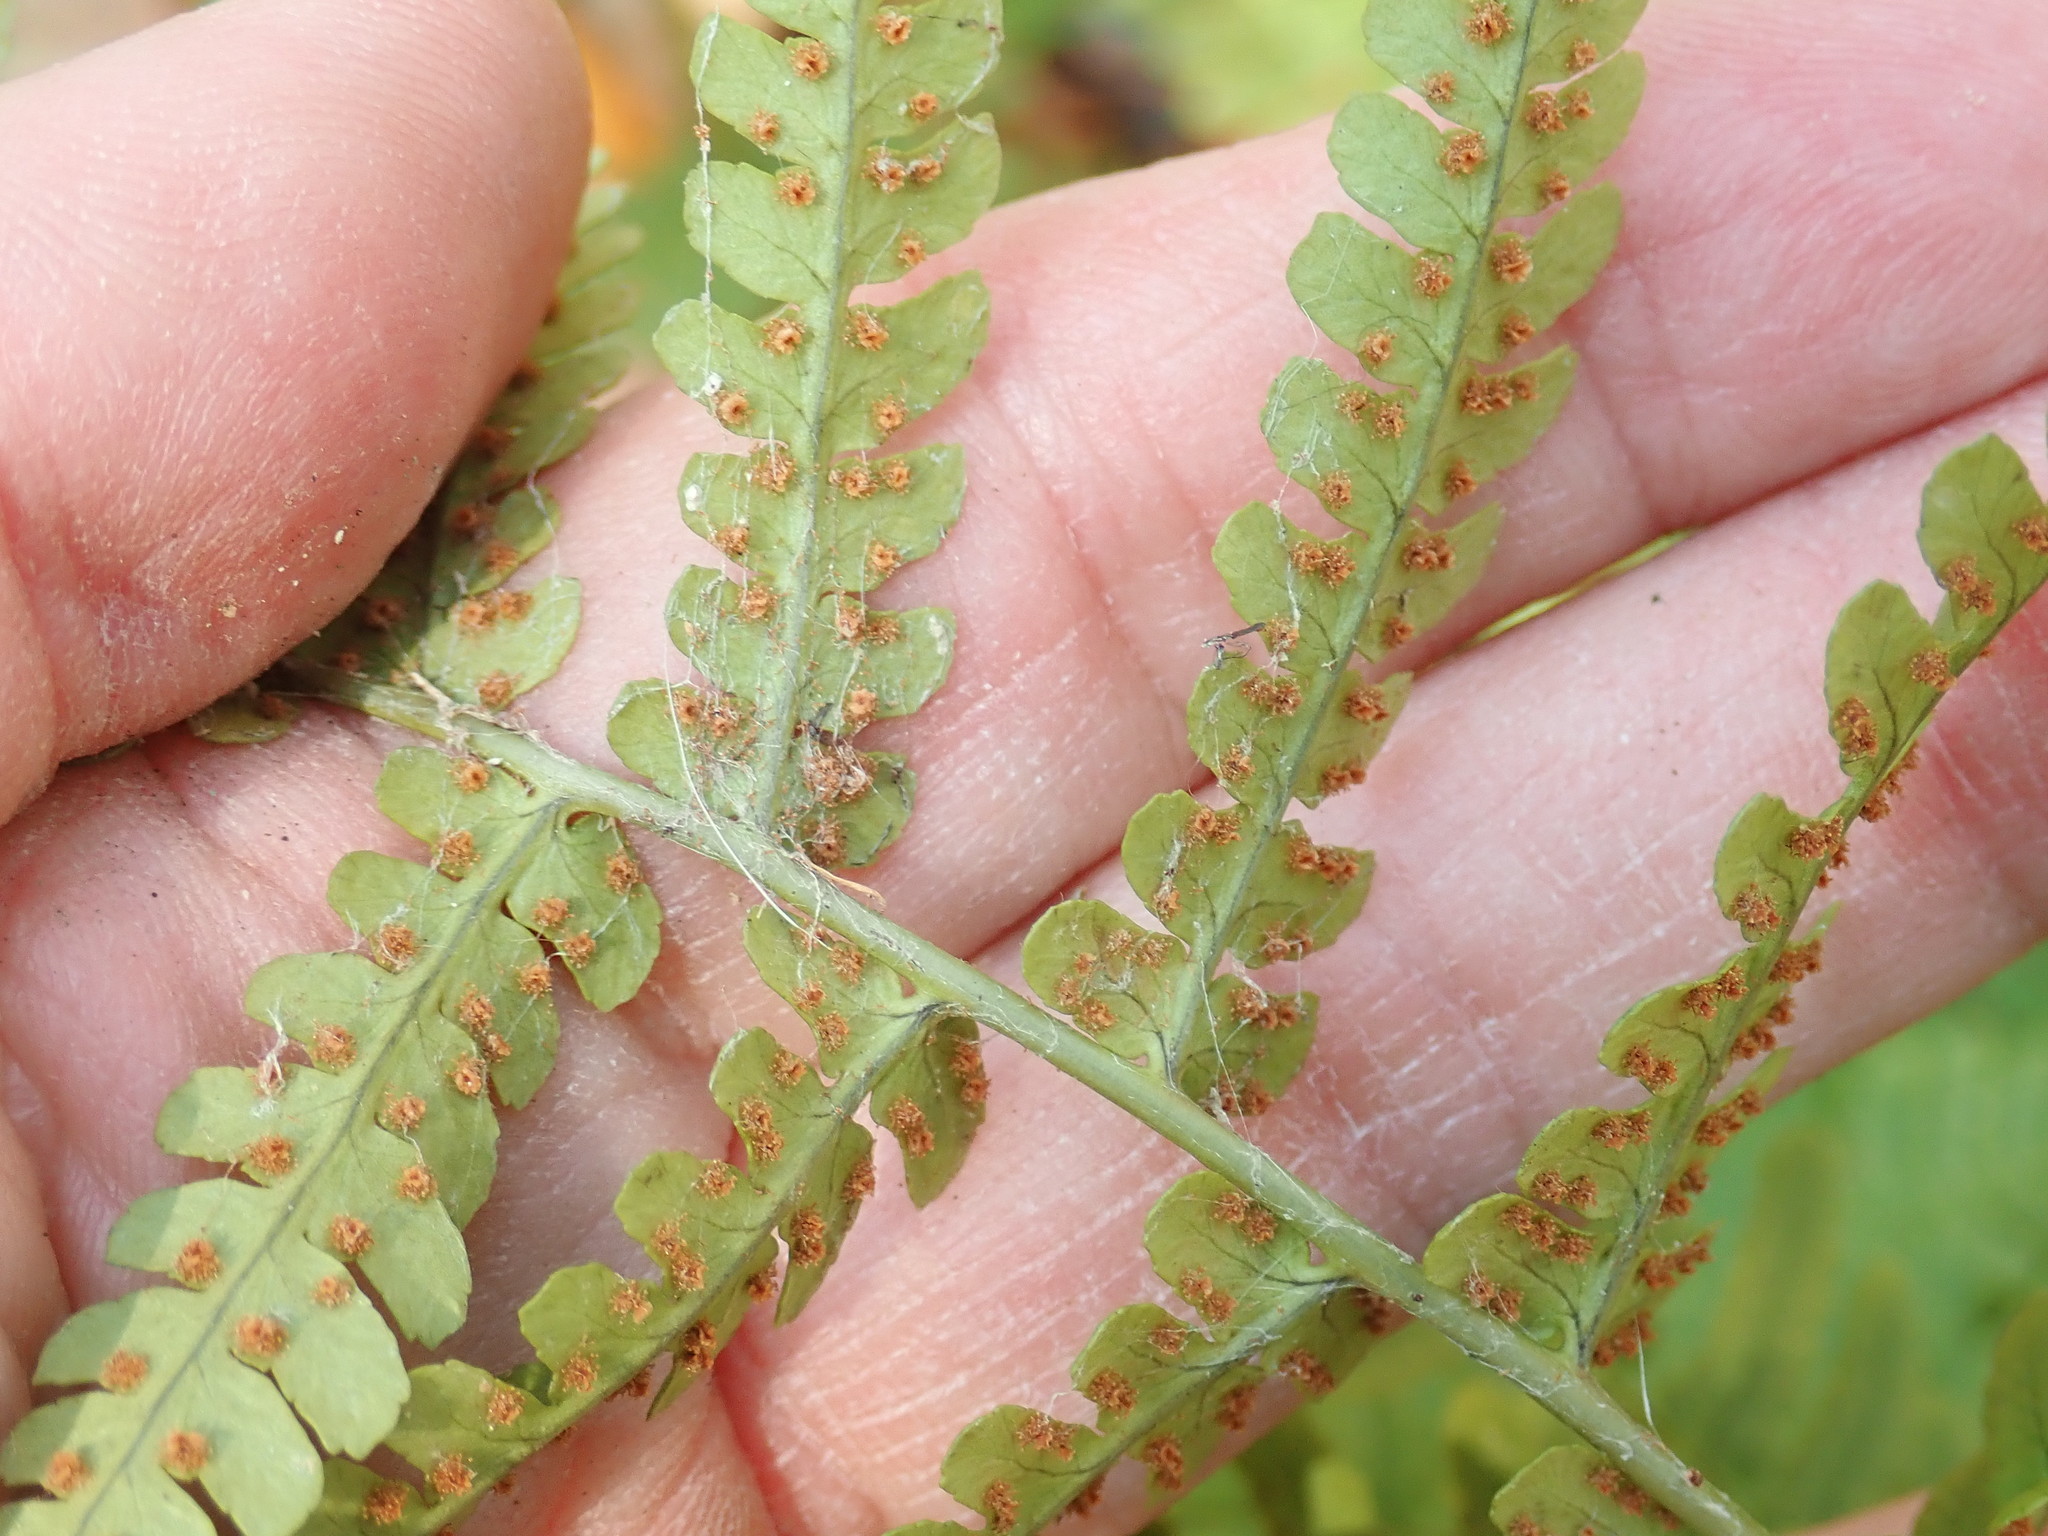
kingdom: Plantae
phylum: Tracheophyta
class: Polypodiopsida
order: Polypodiales
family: Dryopteridaceae
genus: Dryopteris
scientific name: Dryopteris marginalis
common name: Marginal wood fern
